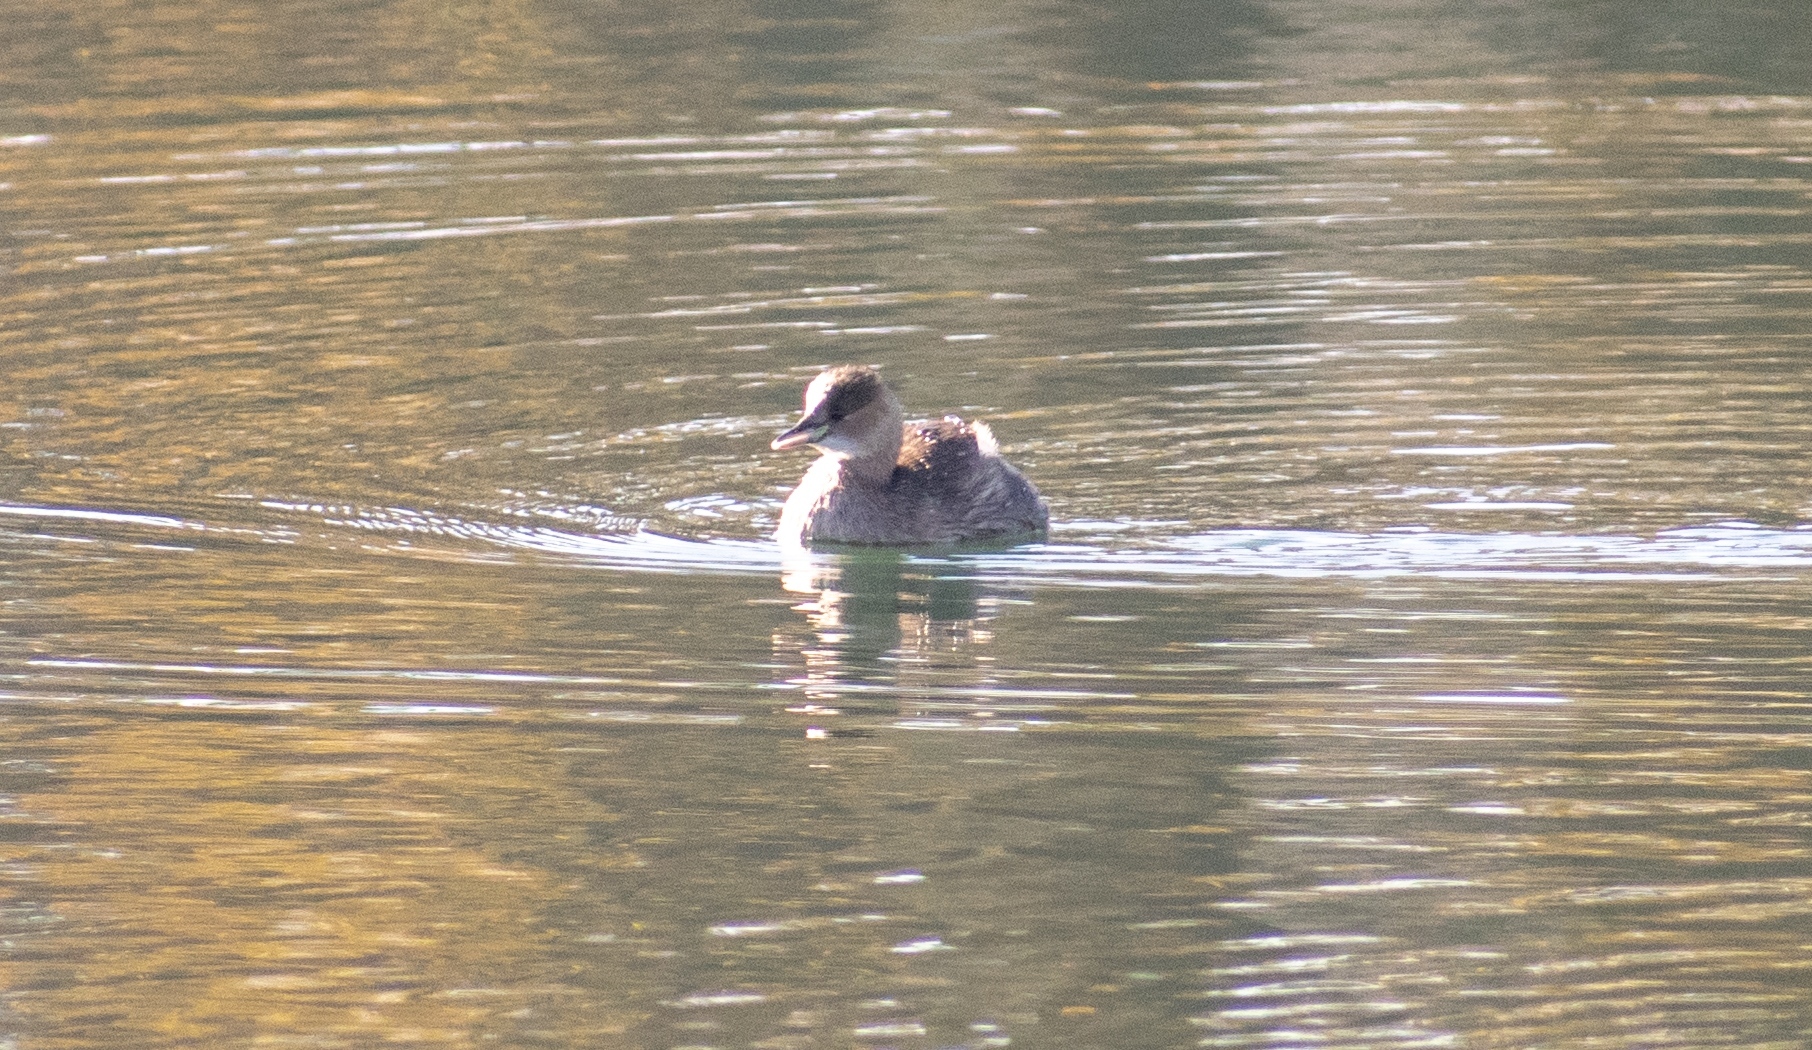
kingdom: Animalia
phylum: Chordata
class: Aves
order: Podicipediformes
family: Podicipedidae
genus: Tachybaptus
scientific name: Tachybaptus ruficollis
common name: Little grebe
